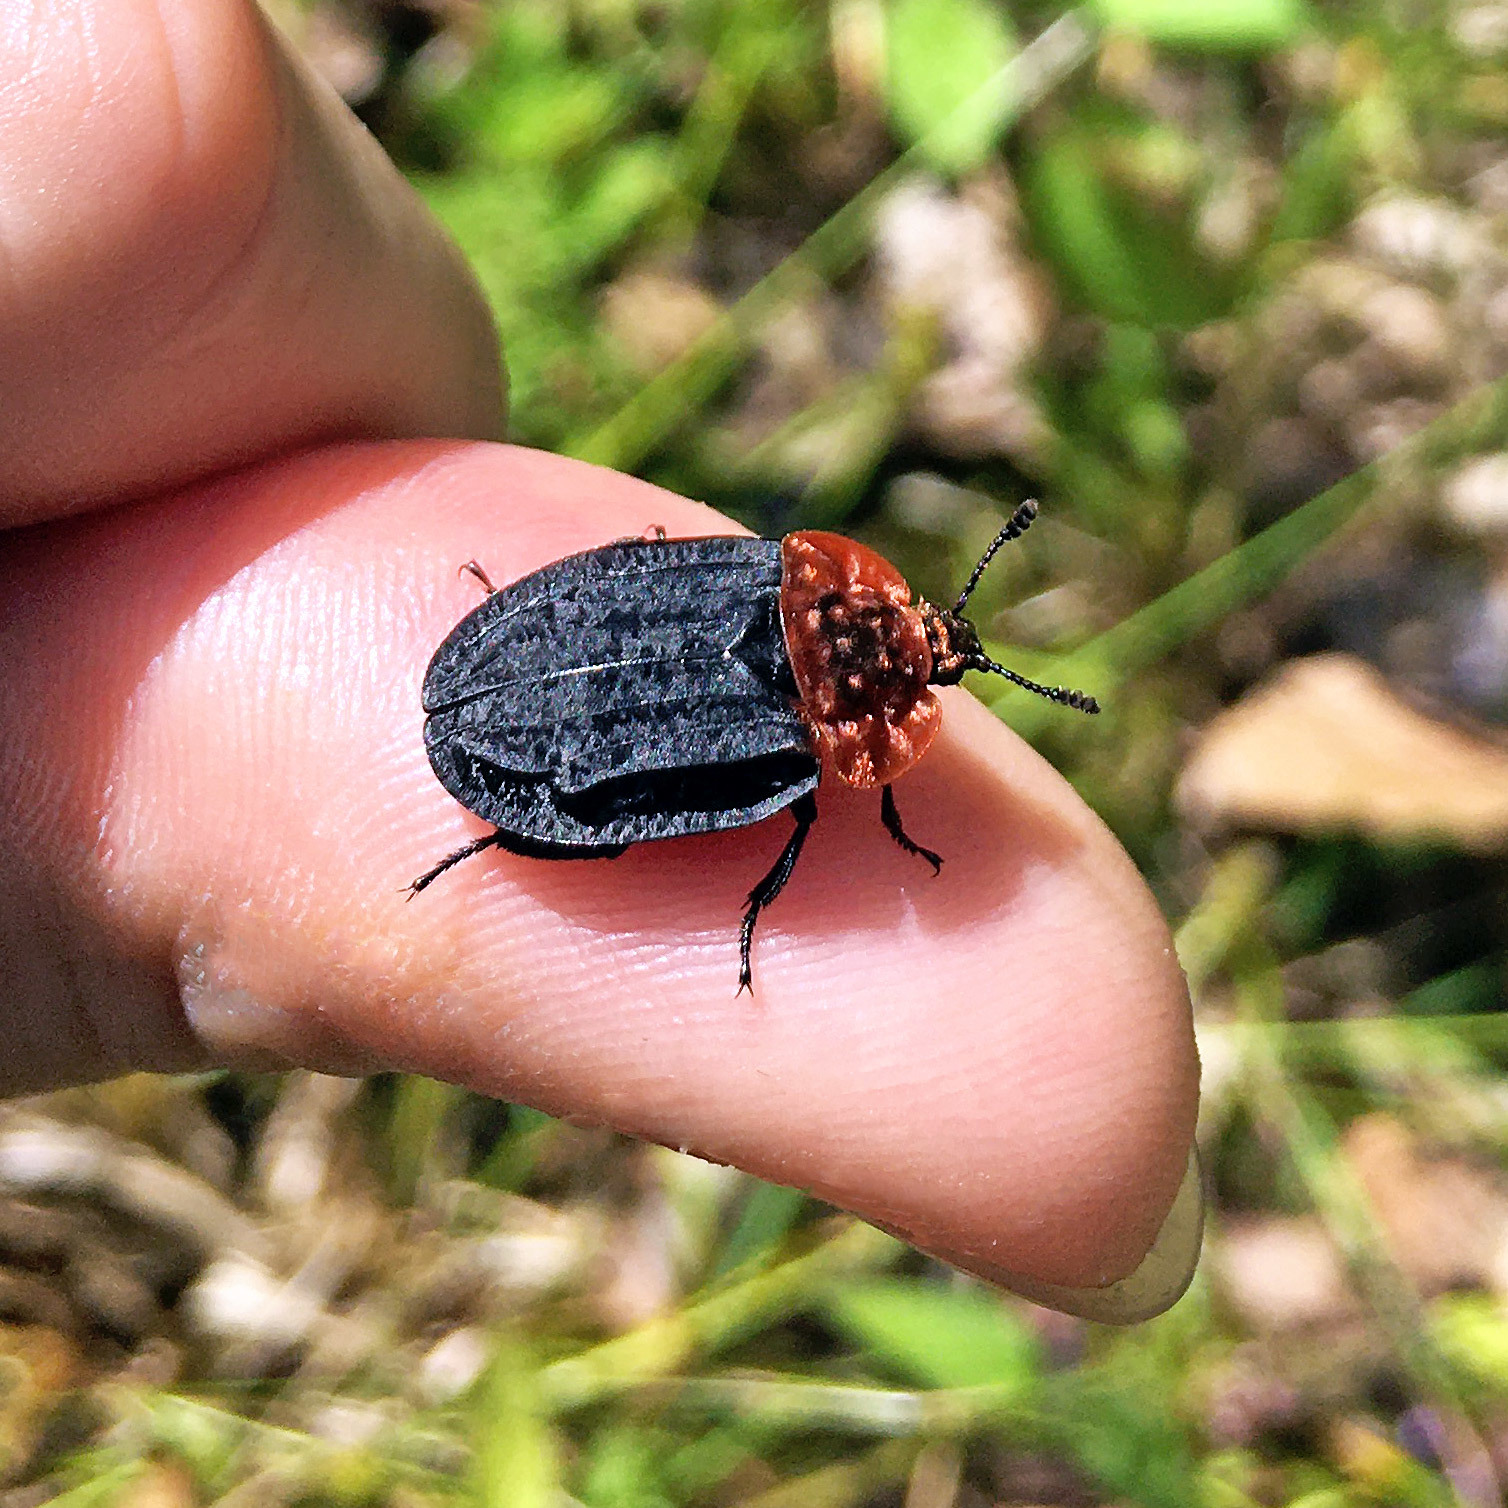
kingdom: Animalia
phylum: Arthropoda
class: Insecta
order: Coleoptera
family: Staphylinidae
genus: Oiceoptoma
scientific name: Oiceoptoma thoracicum
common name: Red-breasted carrion beetle
